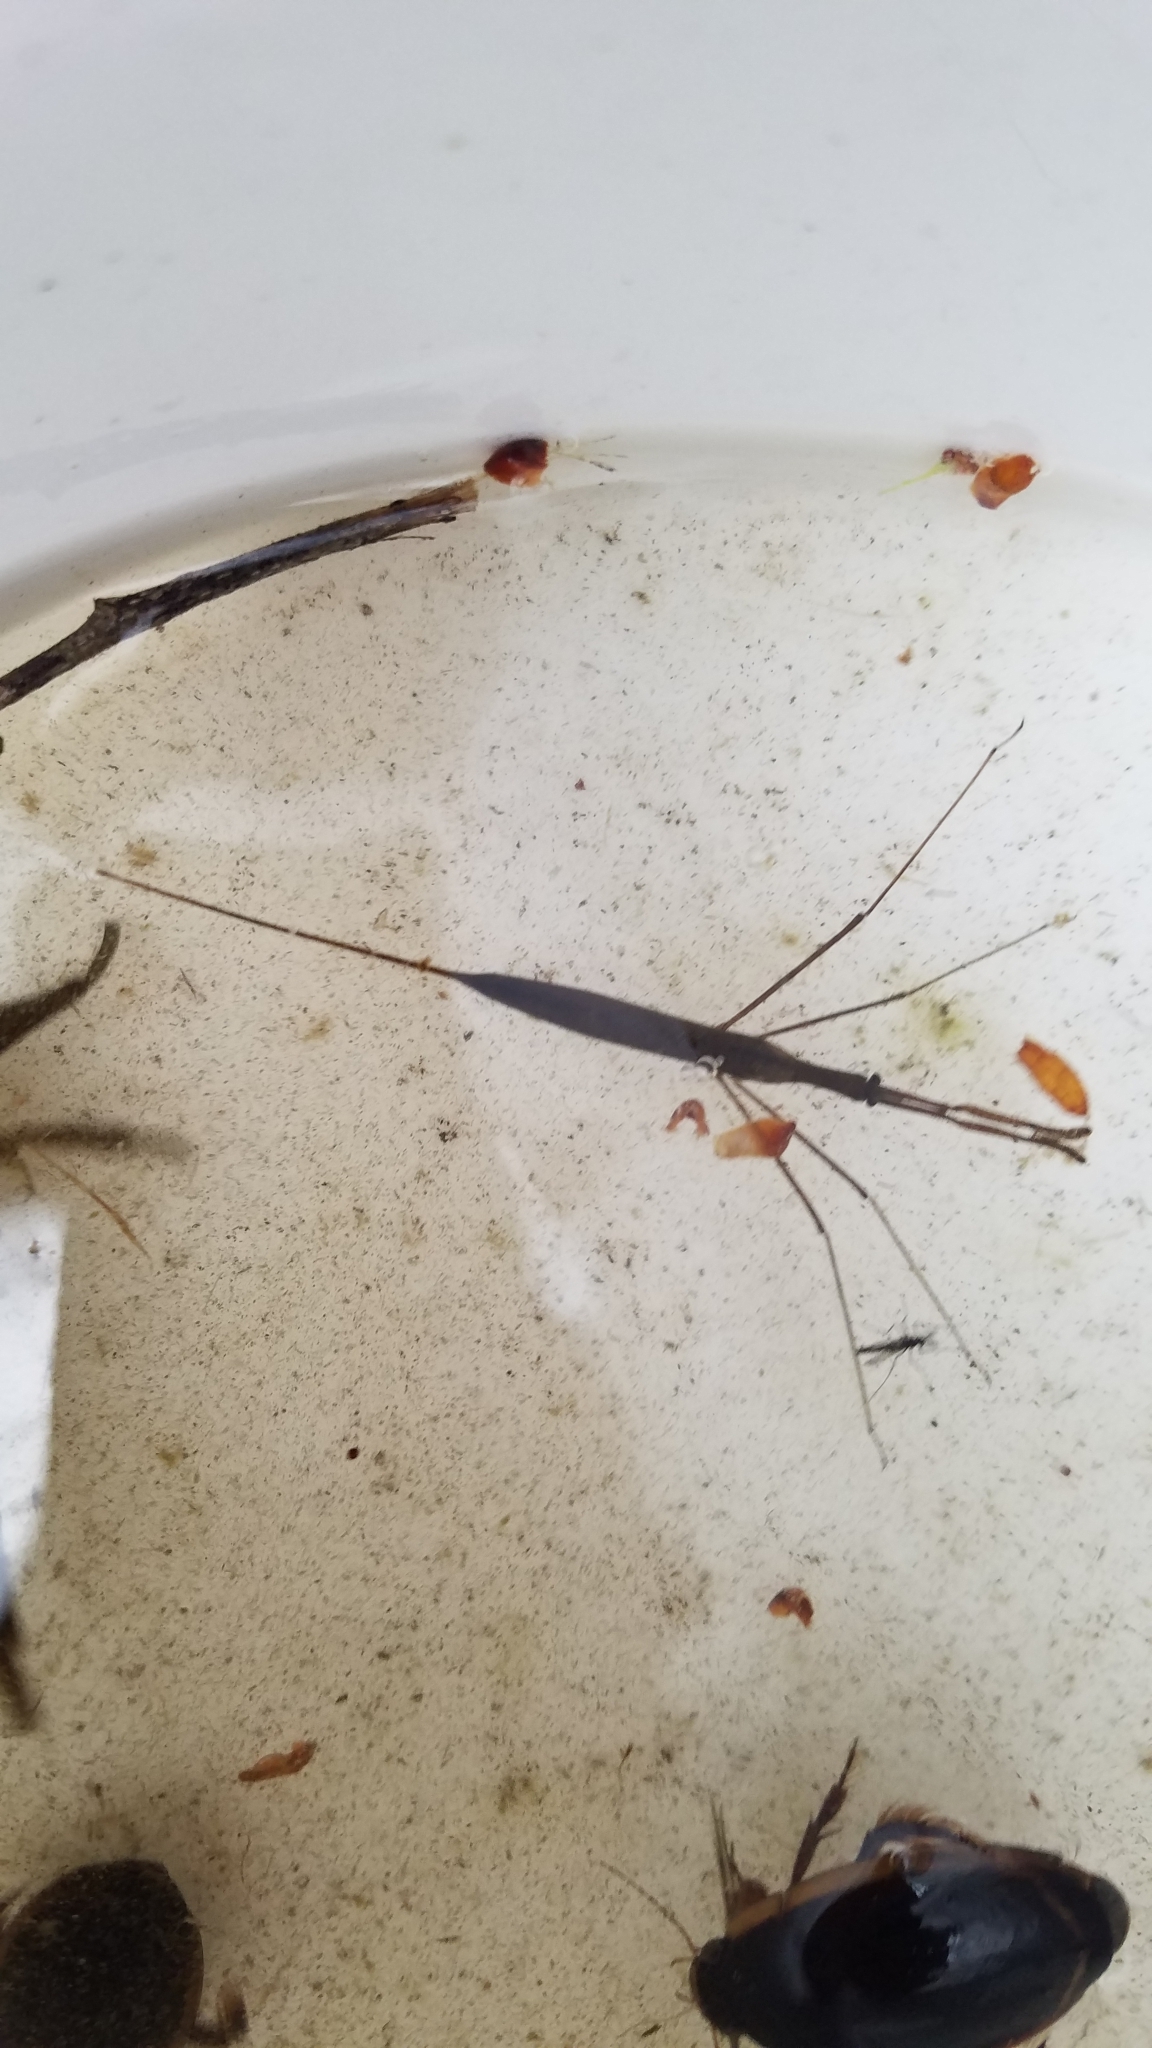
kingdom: Animalia
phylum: Arthropoda
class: Insecta
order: Hemiptera
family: Nepidae
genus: Ranatra
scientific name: Ranatra
